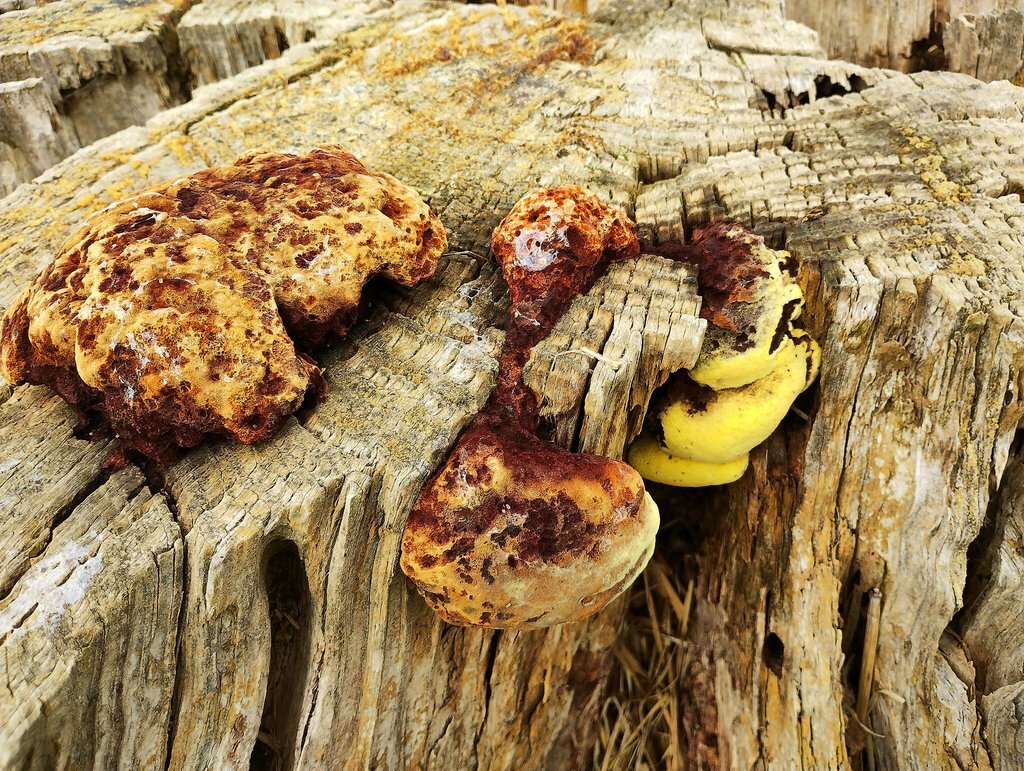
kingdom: Fungi
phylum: Basidiomycota
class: Agaricomycetes
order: Polyporales
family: Laetiporaceae
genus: Phaeolus
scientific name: Phaeolus schweinitzii
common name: Dyer's mazegill
